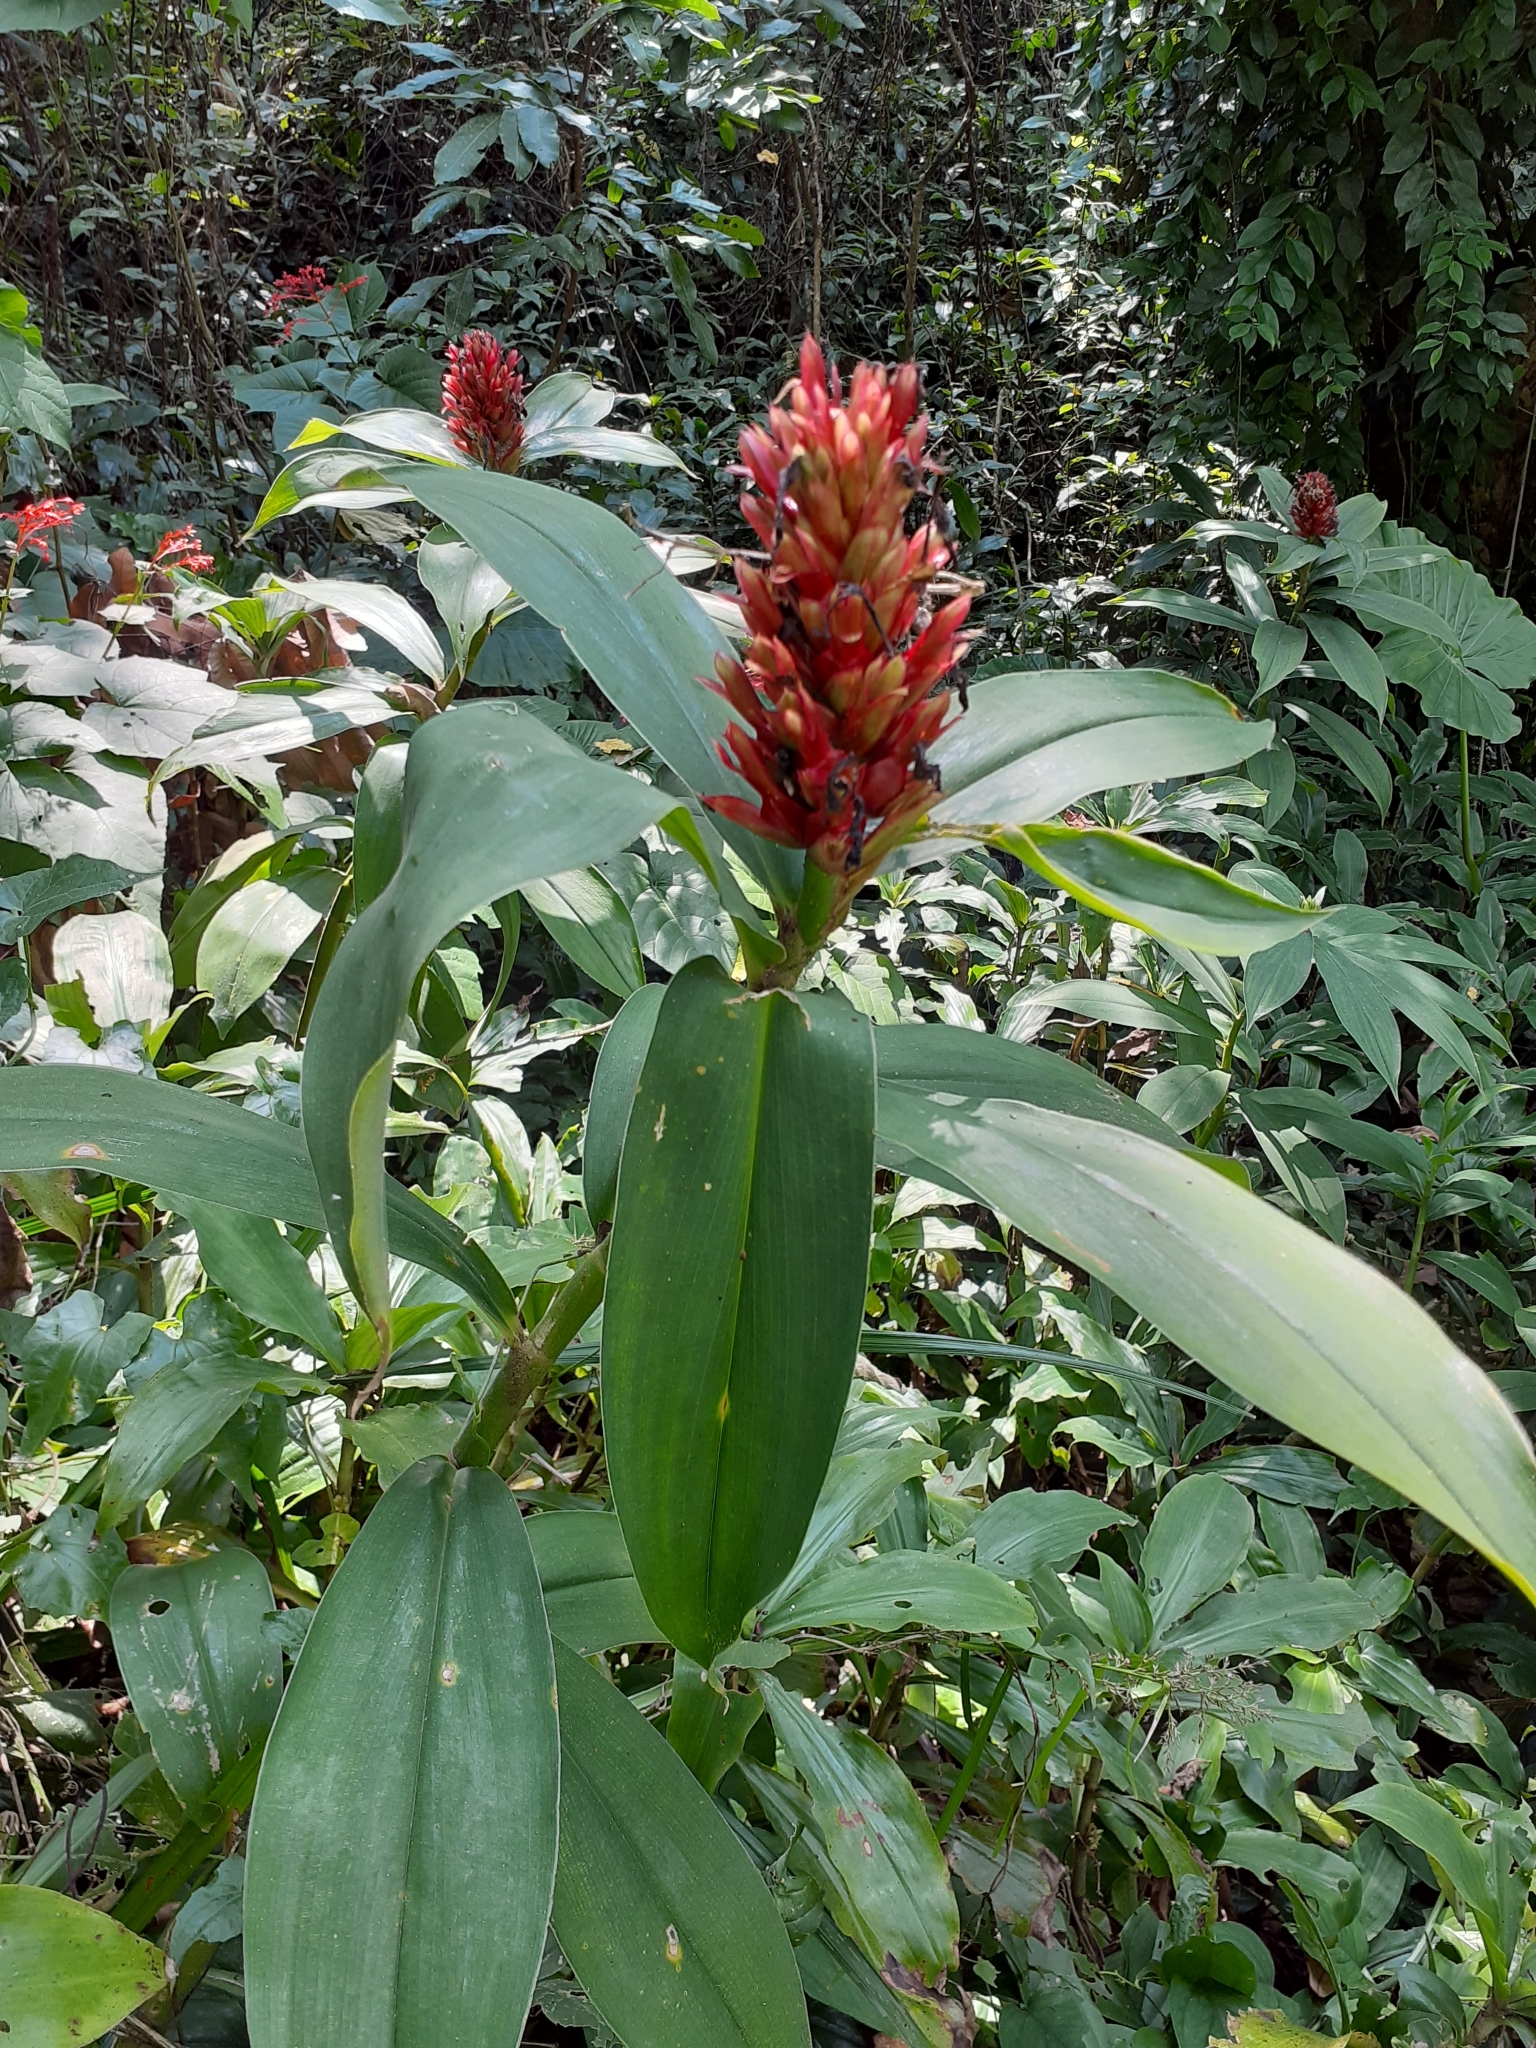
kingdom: Plantae
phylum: Tracheophyta
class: Liliopsida
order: Zingiberales
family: Costaceae
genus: Hellenia
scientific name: Hellenia speciosa
